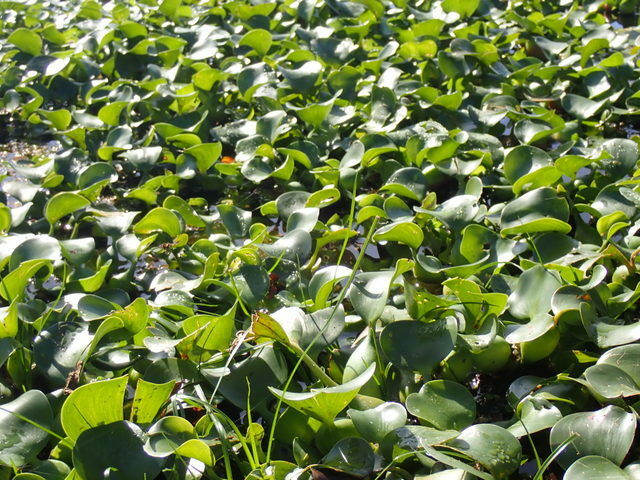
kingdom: Plantae
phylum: Tracheophyta
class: Liliopsida
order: Commelinales
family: Pontederiaceae
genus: Pontederia
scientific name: Pontederia crassipes
